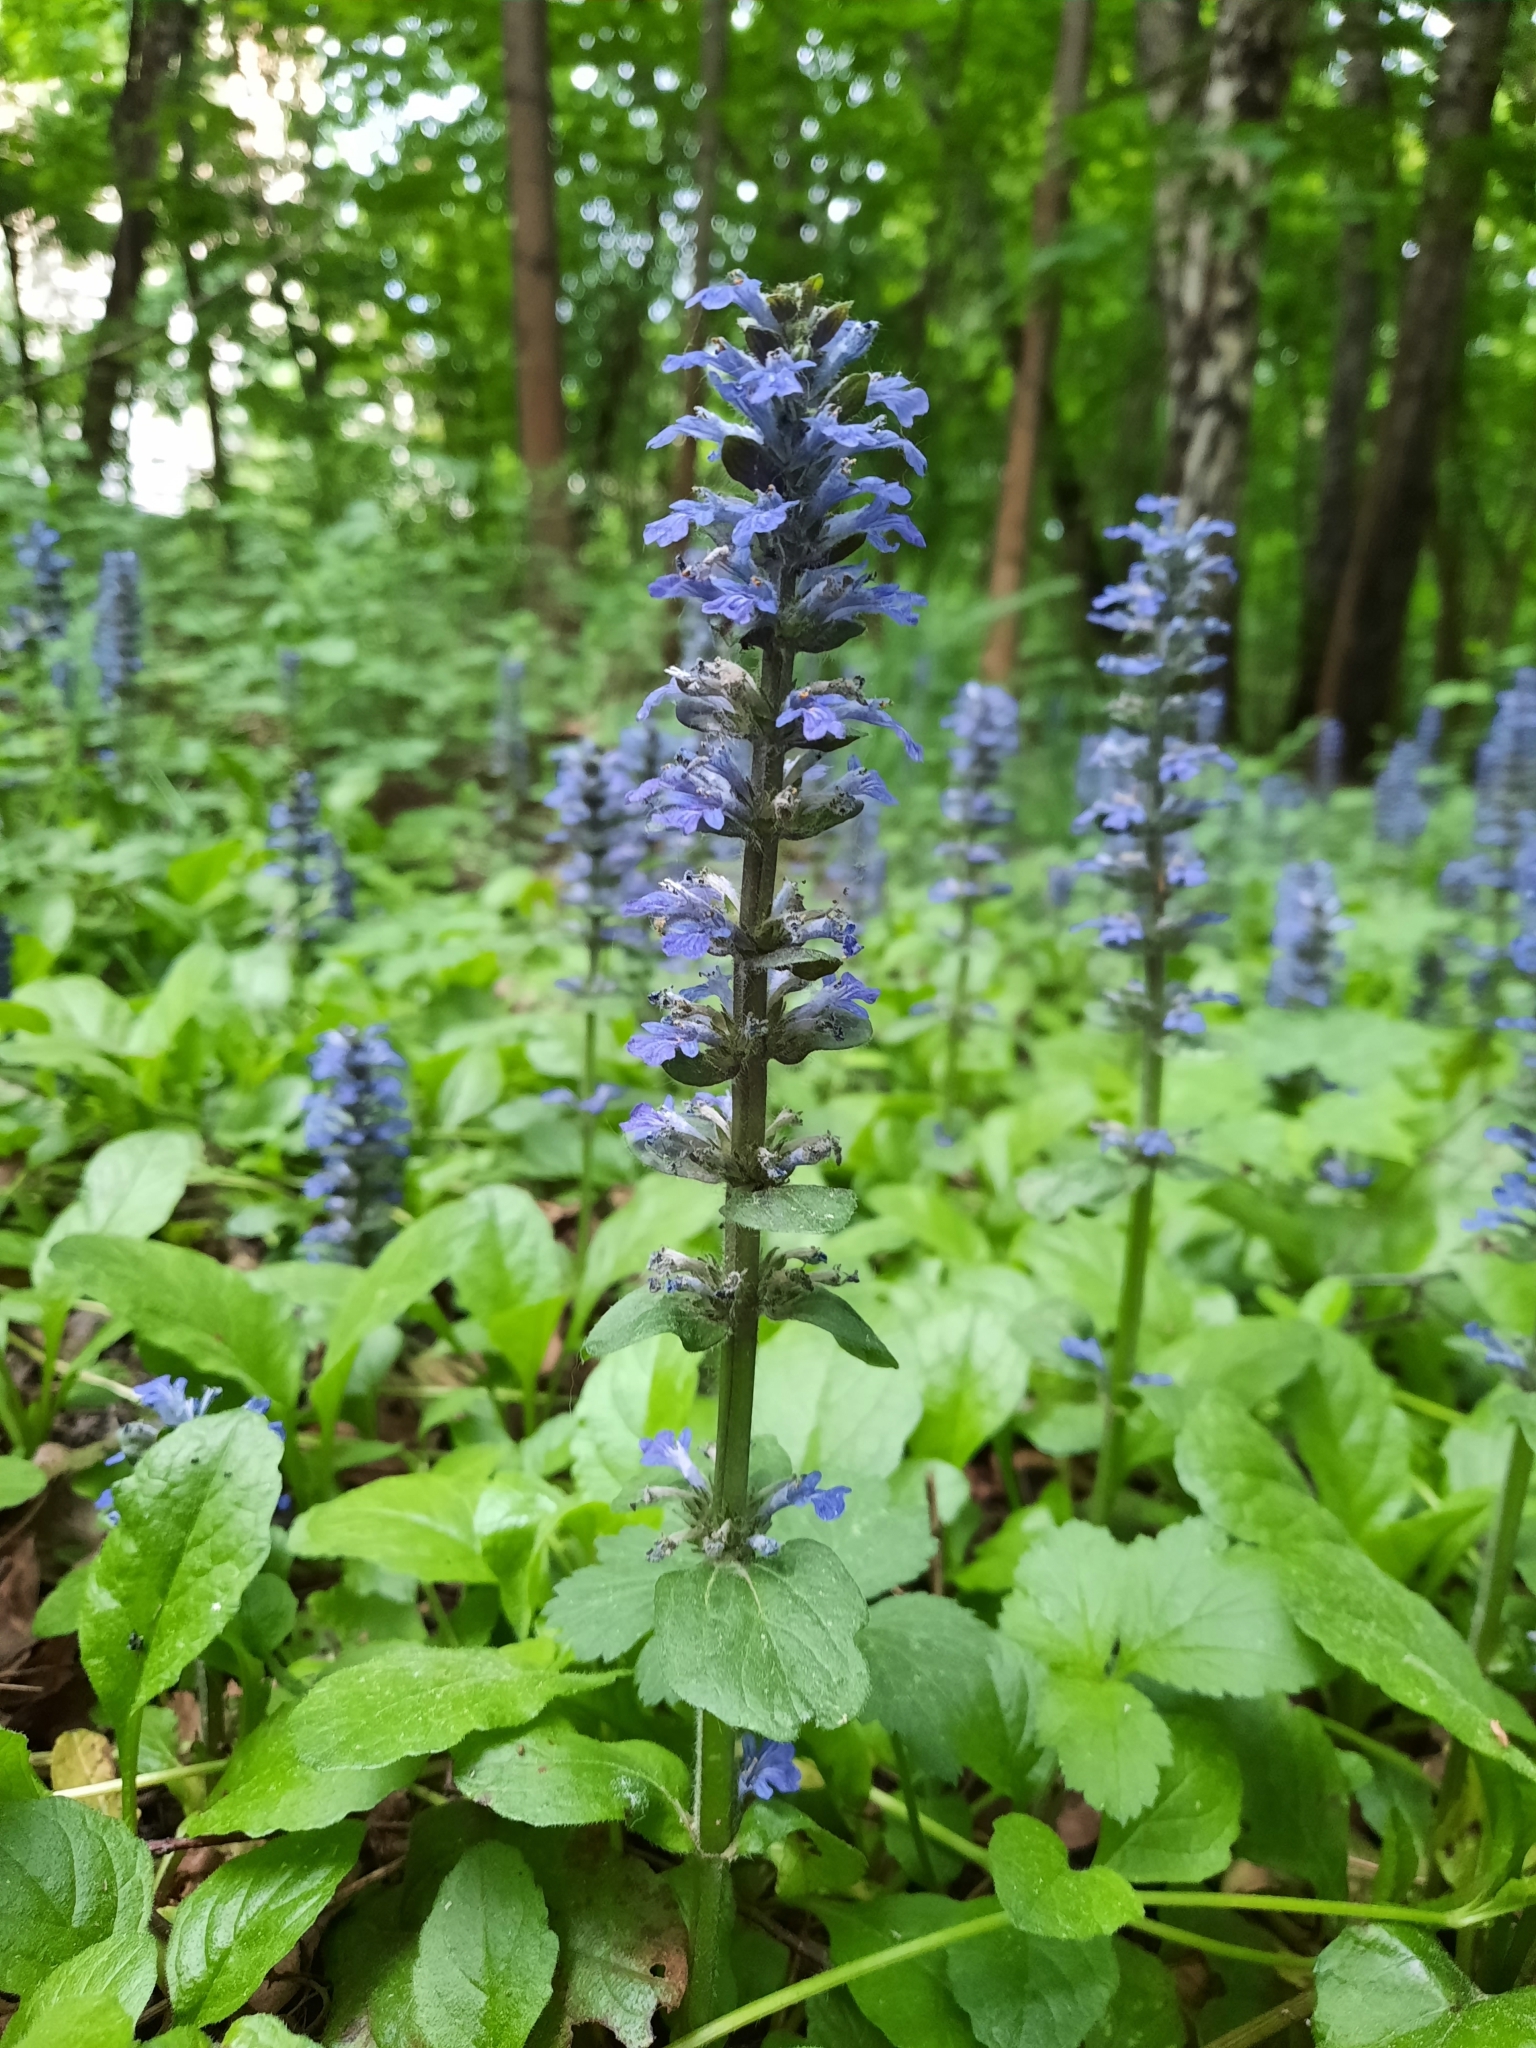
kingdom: Plantae
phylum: Tracheophyta
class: Magnoliopsida
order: Lamiales
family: Lamiaceae
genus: Ajuga
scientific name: Ajuga reptans
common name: Bugle
